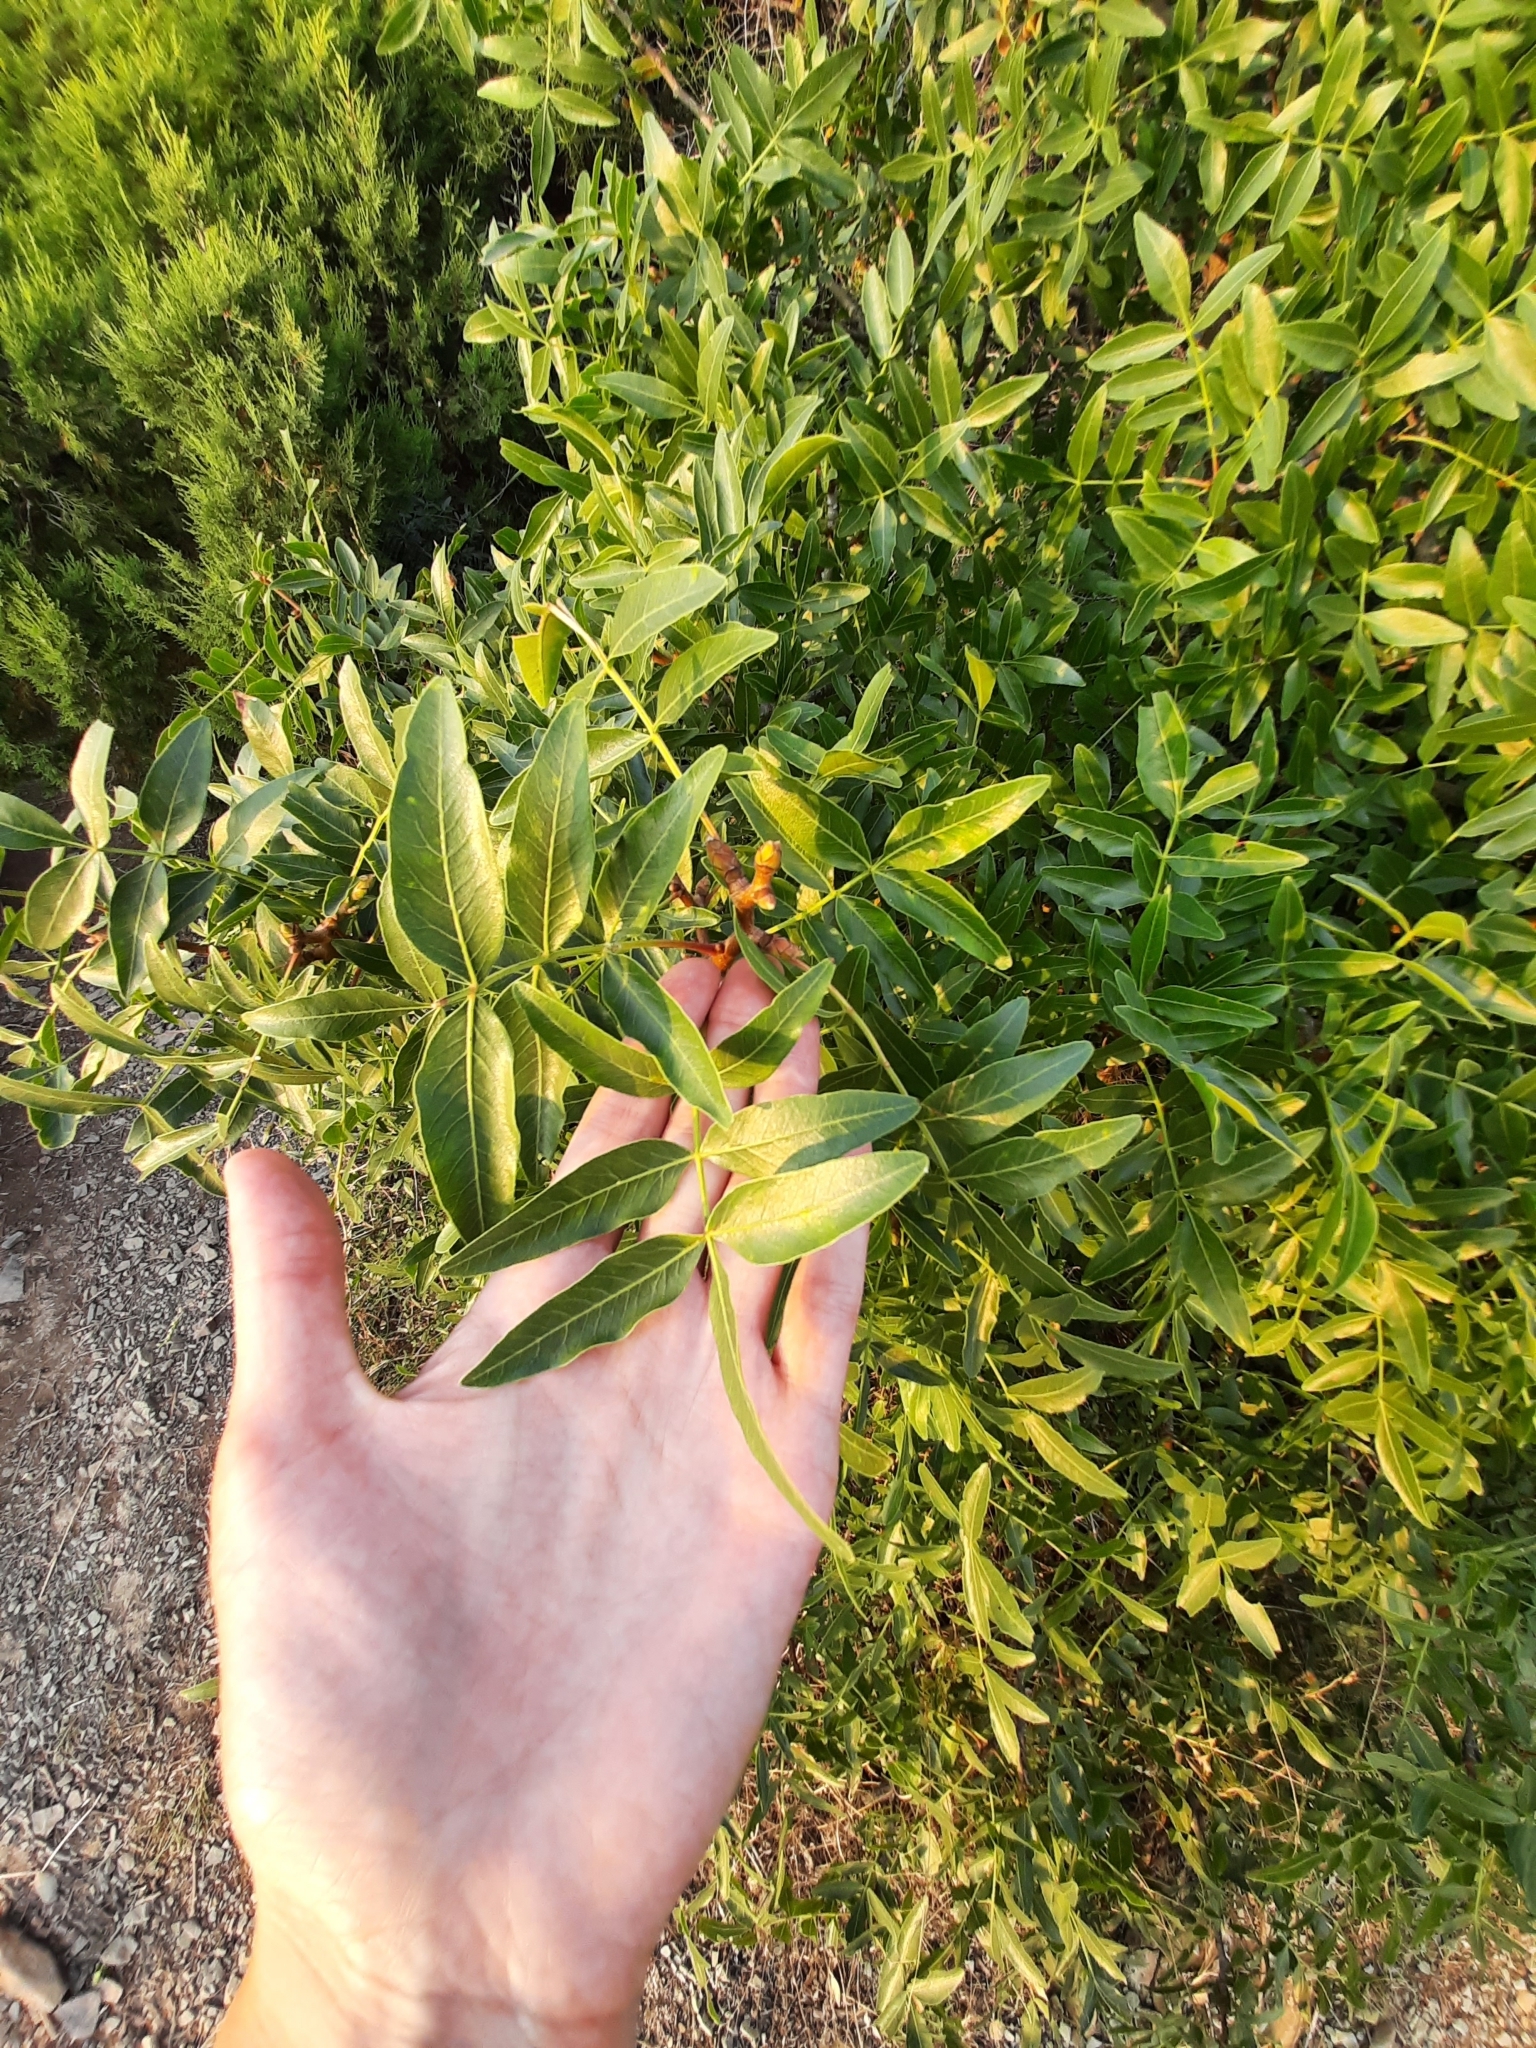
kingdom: Plantae
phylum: Tracheophyta
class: Magnoliopsida
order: Sapindales
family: Anacardiaceae
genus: Pistacia
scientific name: Pistacia atlantica
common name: Mt. atlas mastic tree
